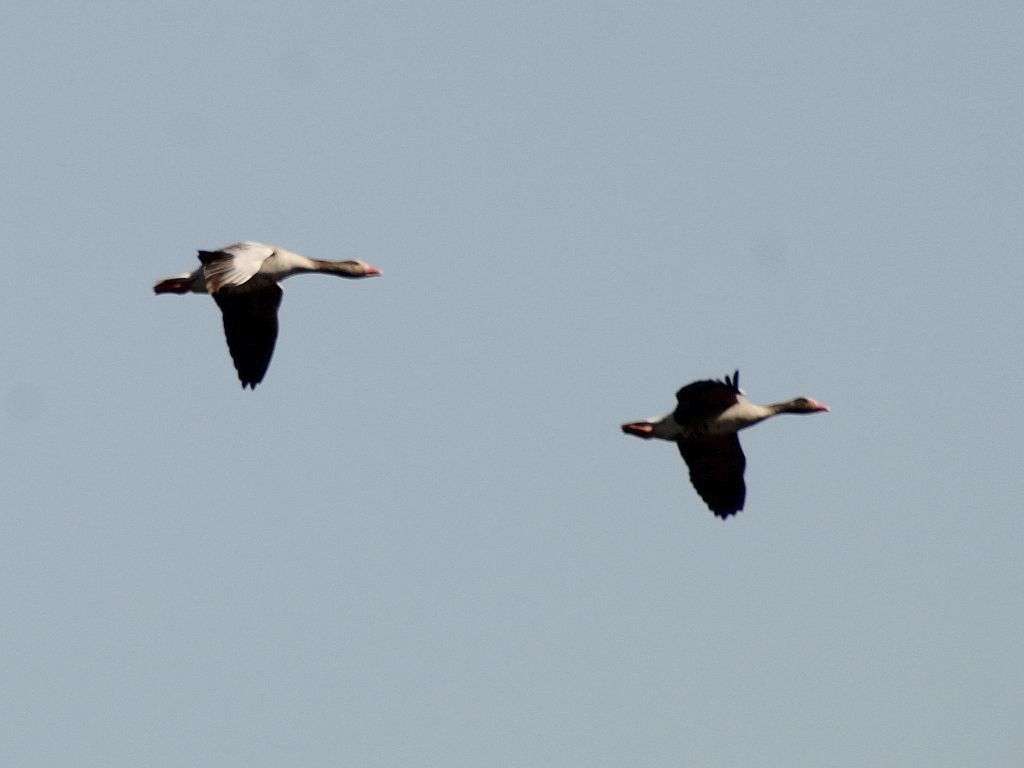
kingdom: Animalia
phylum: Chordata
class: Aves
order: Anseriformes
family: Anatidae
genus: Anser
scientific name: Anser anser
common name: Greylag goose
